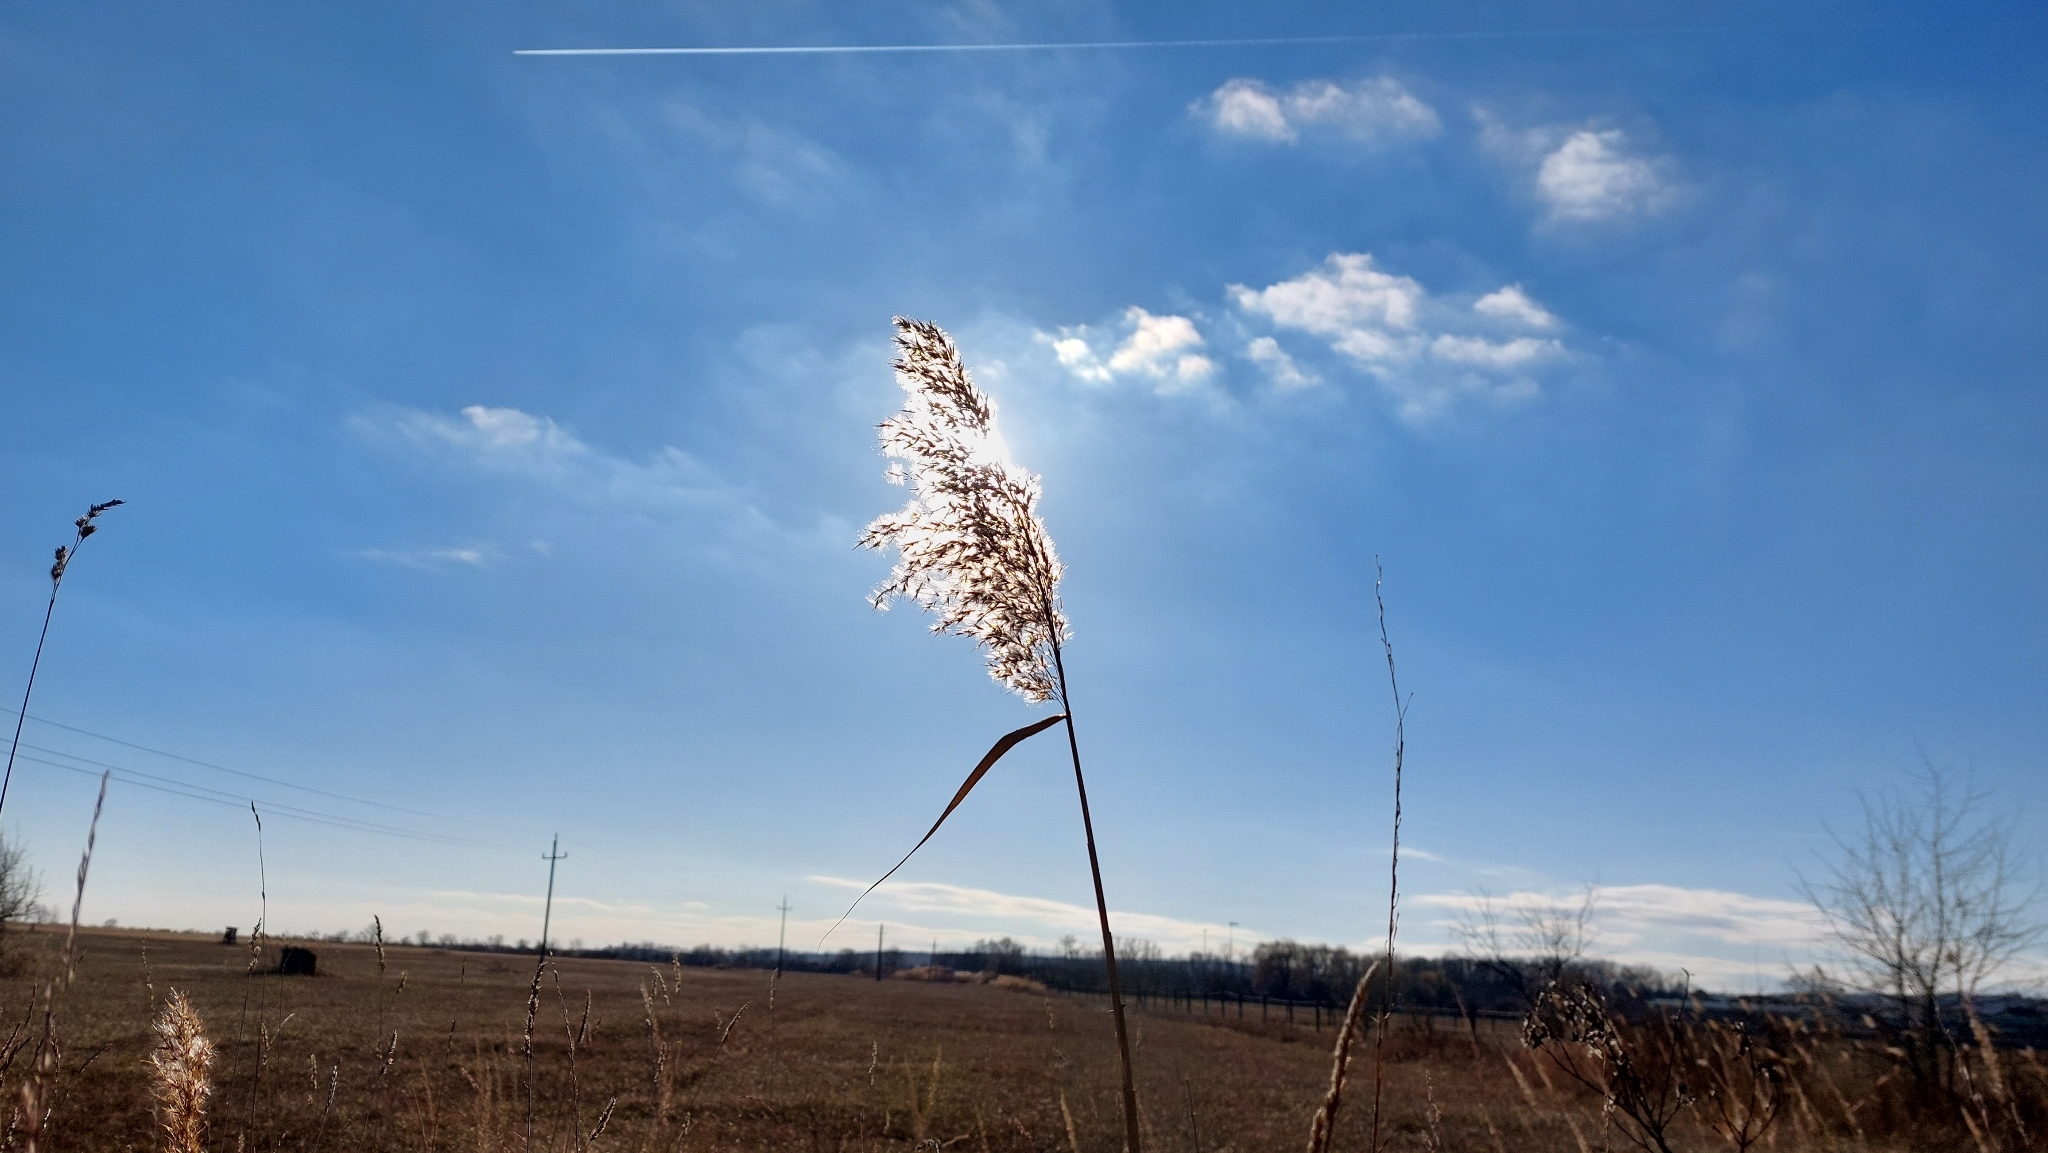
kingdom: Plantae
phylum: Tracheophyta
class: Liliopsida
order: Poales
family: Poaceae
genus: Phragmites
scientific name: Phragmites australis
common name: Common reed
